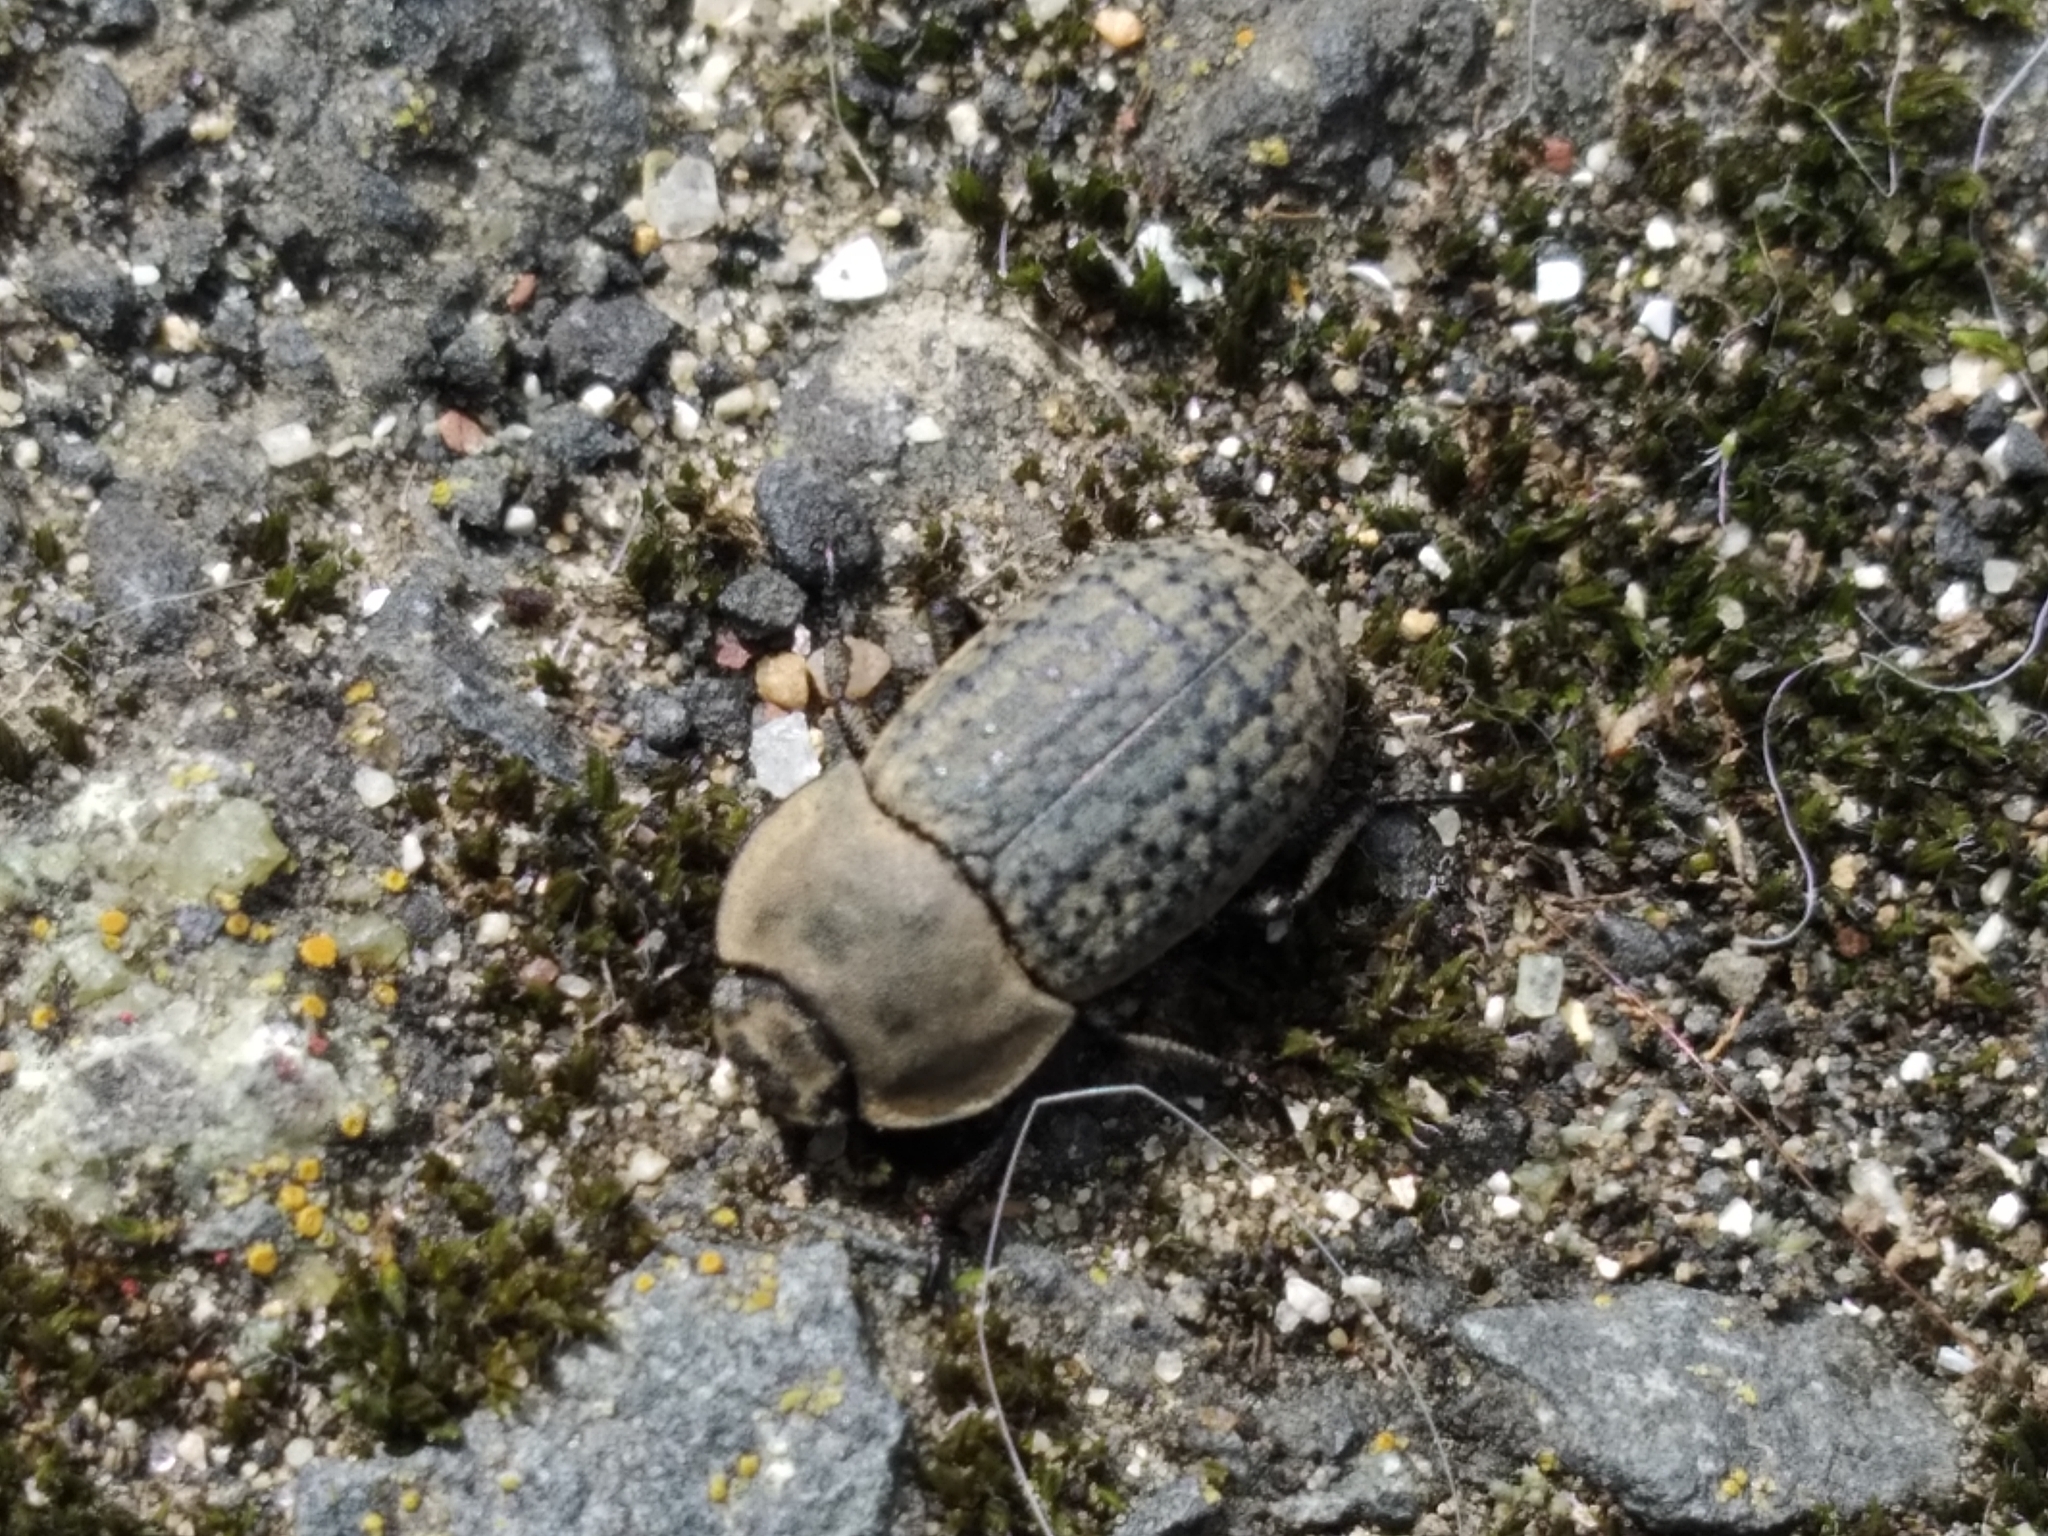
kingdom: Animalia
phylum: Arthropoda
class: Insecta
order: Coleoptera
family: Tenebrionidae
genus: Opatrum
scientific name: Opatrum sabulosum
